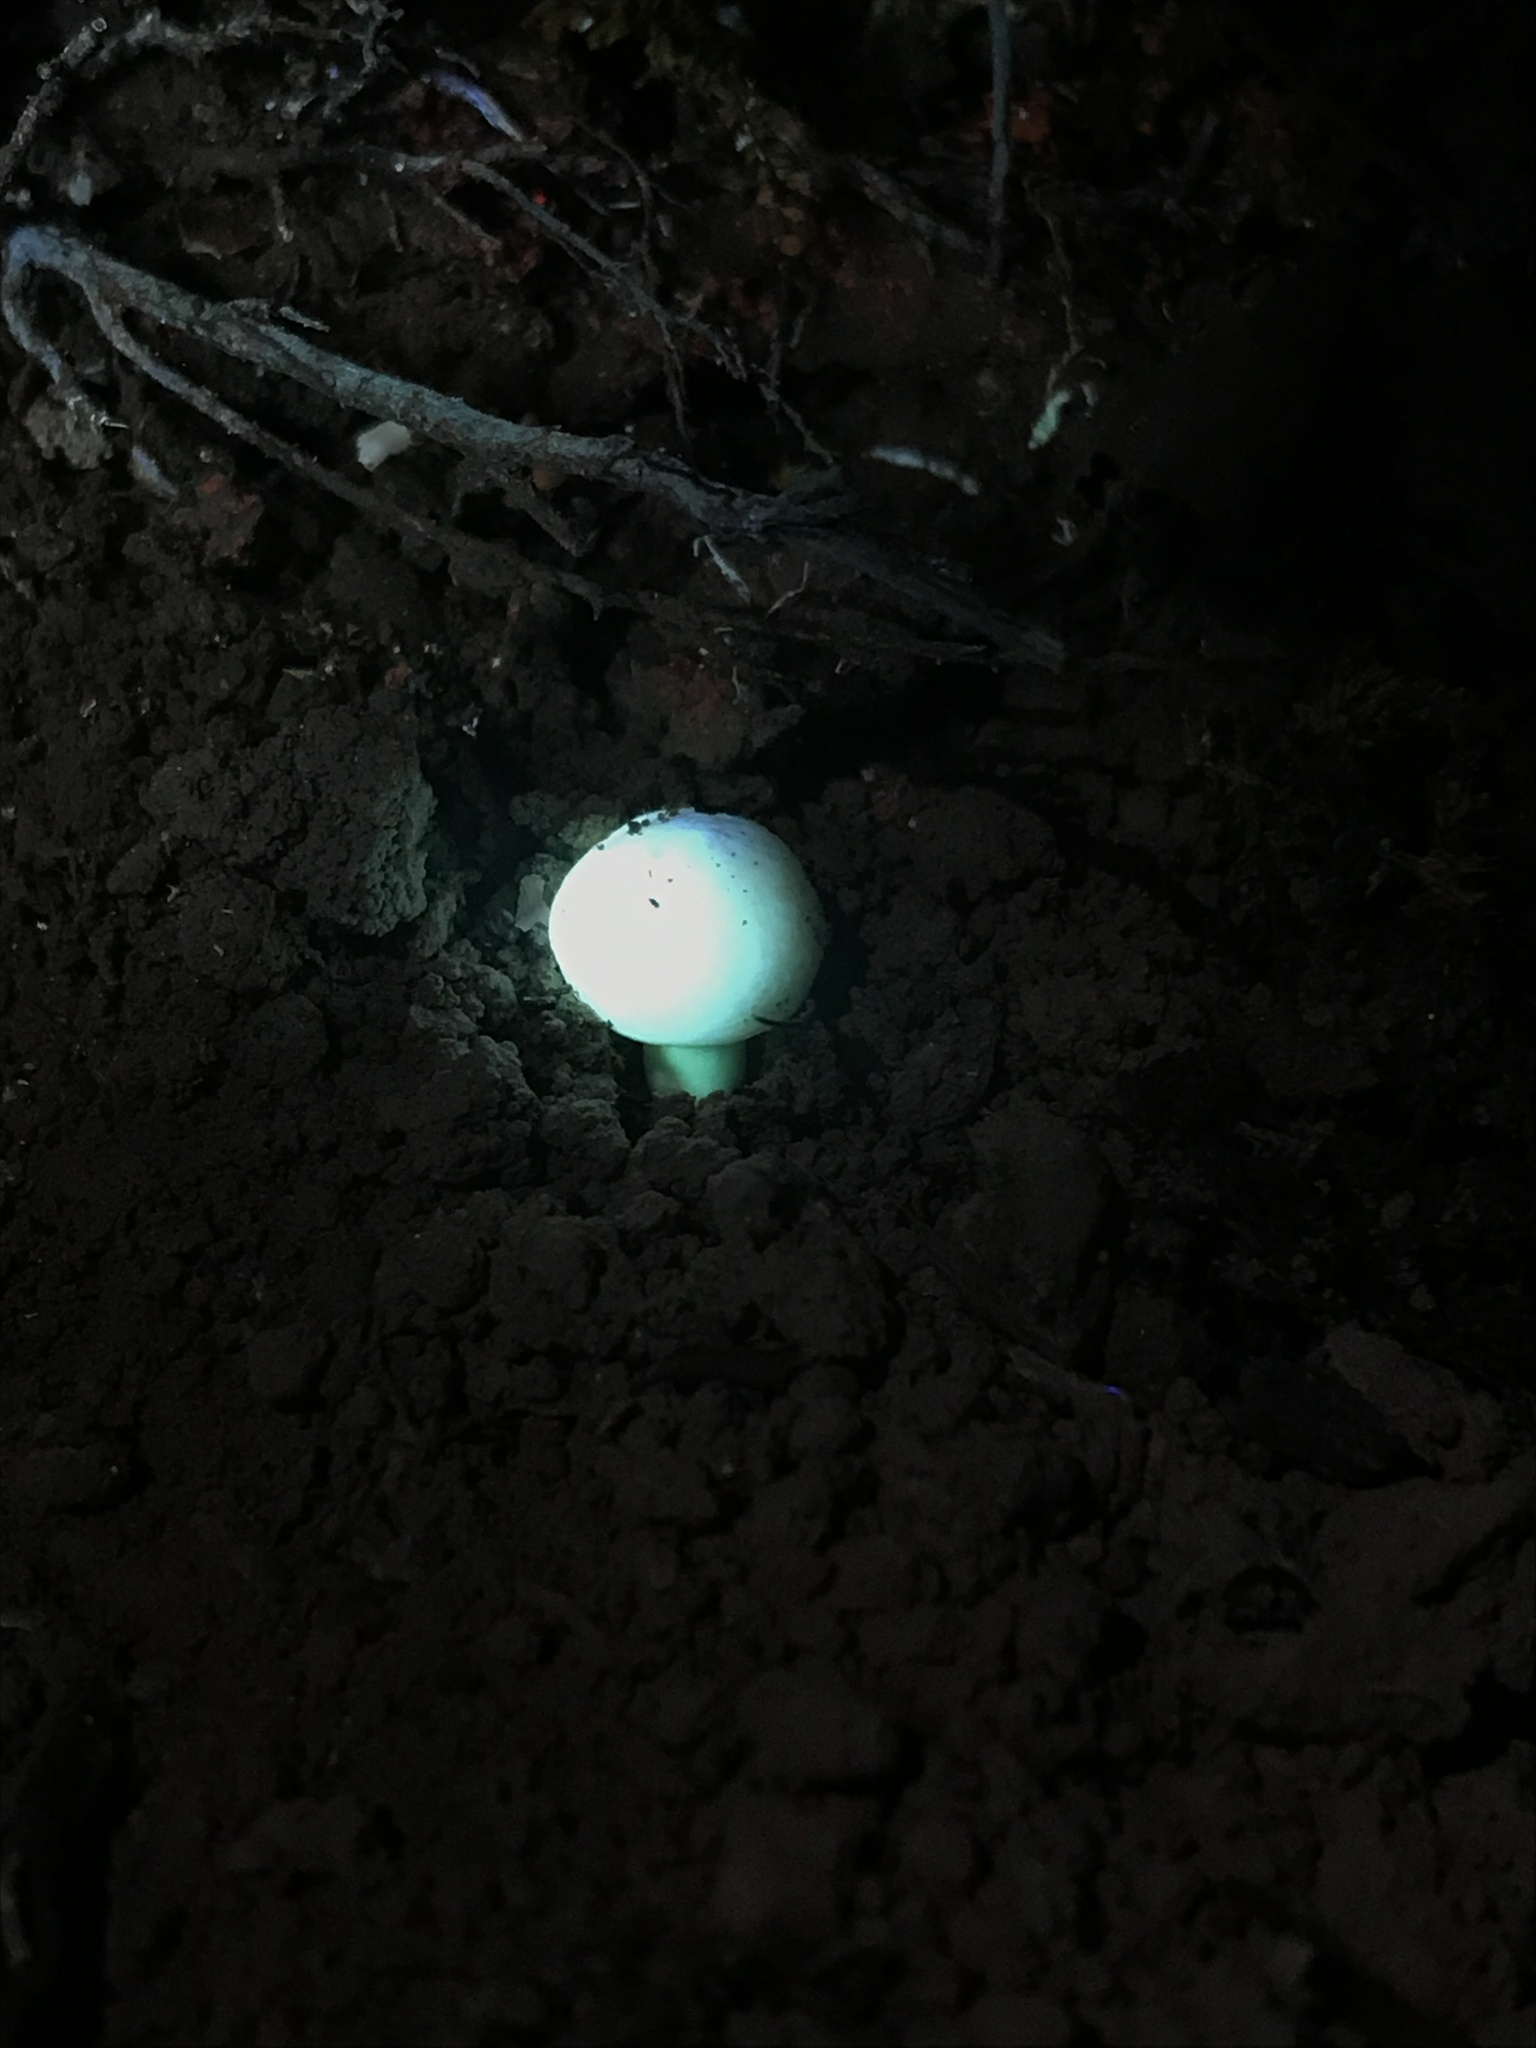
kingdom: Fungi
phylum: Basidiomycota
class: Agaricomycetes
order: Russulales
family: Russulaceae
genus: Russula
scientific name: Russula mariae
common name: Purple-bloom russula
